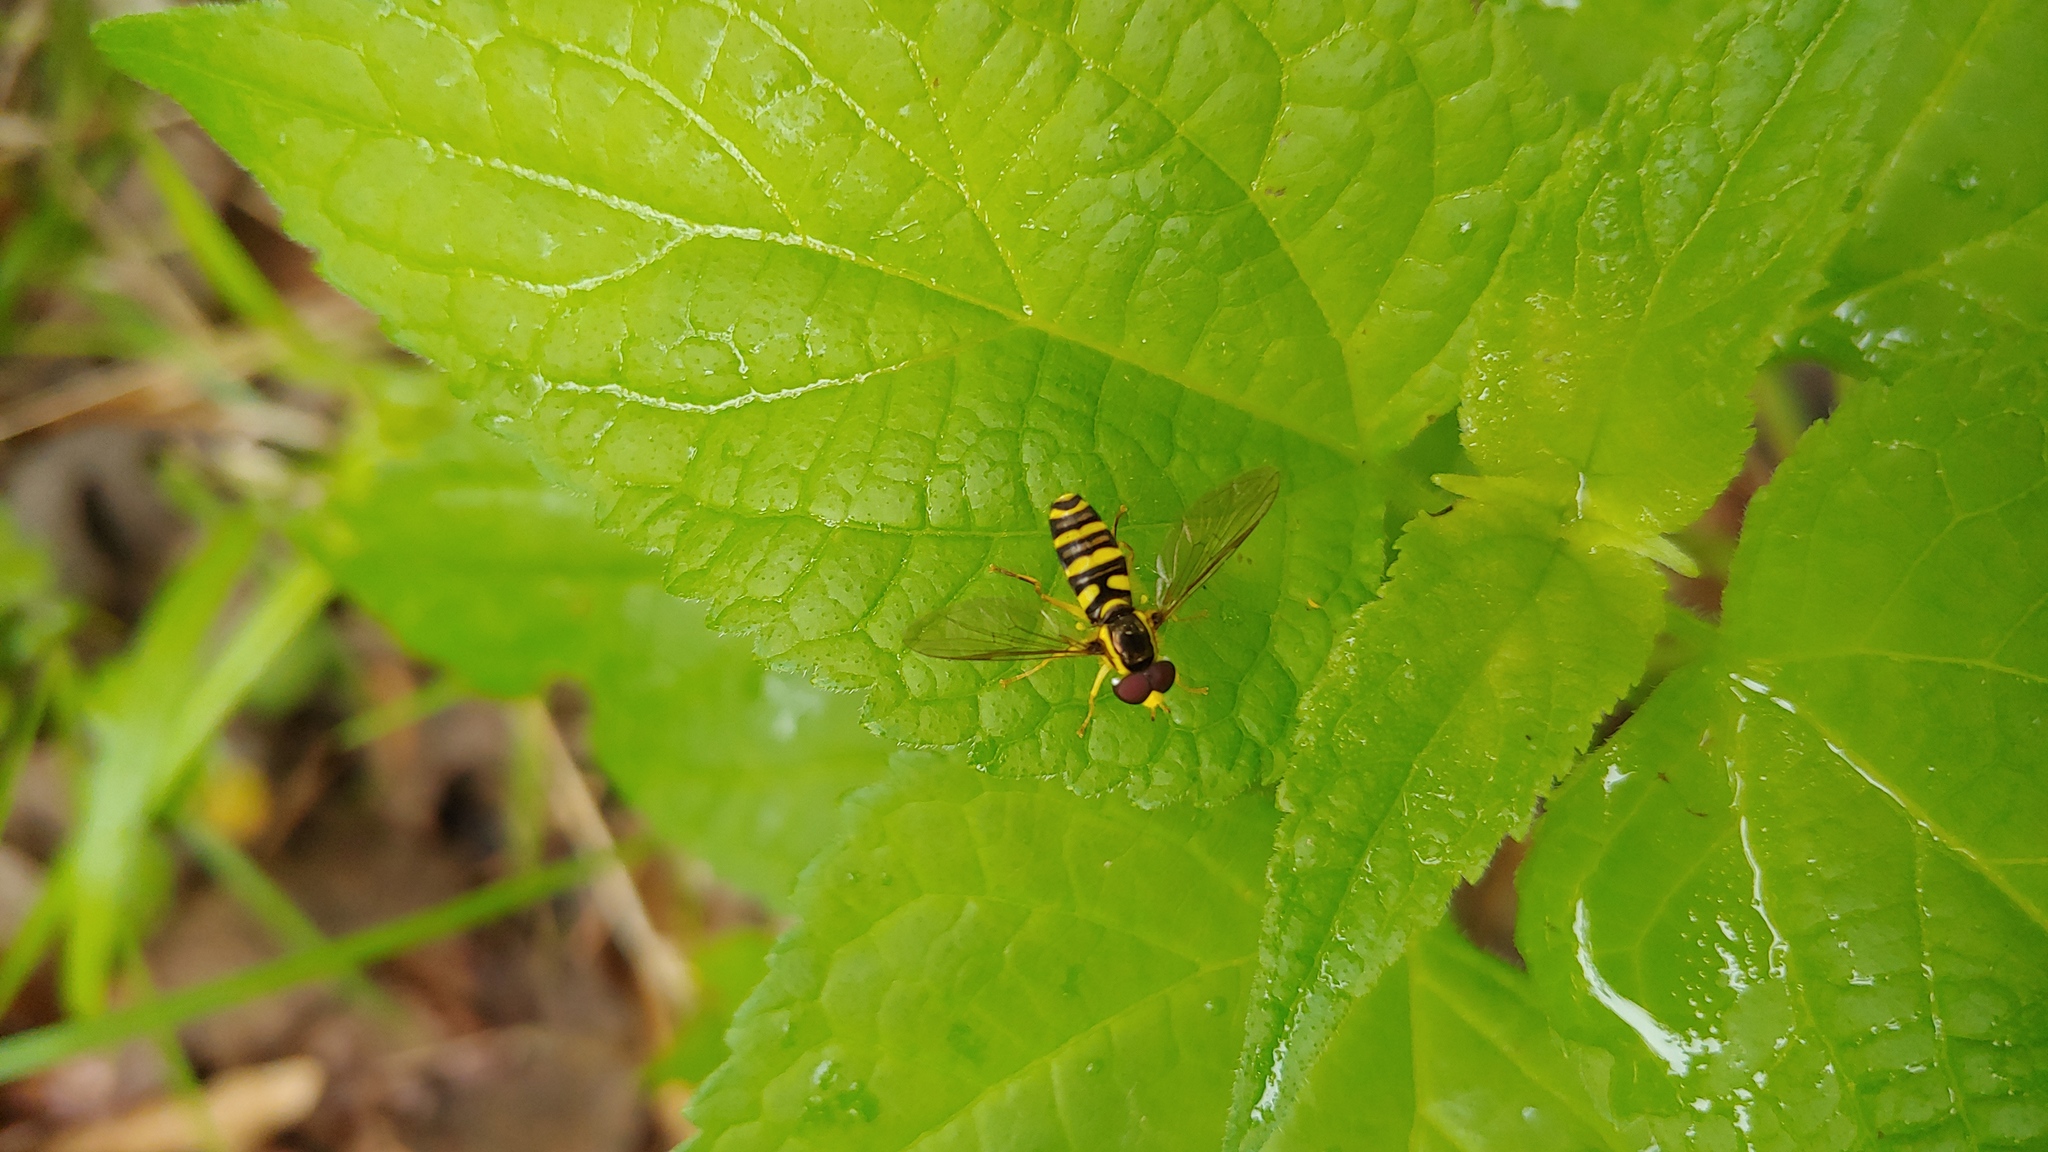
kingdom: Animalia
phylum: Arthropoda
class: Insecta
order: Diptera
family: Syrphidae
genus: Philhelius
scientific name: Philhelius flavipes
